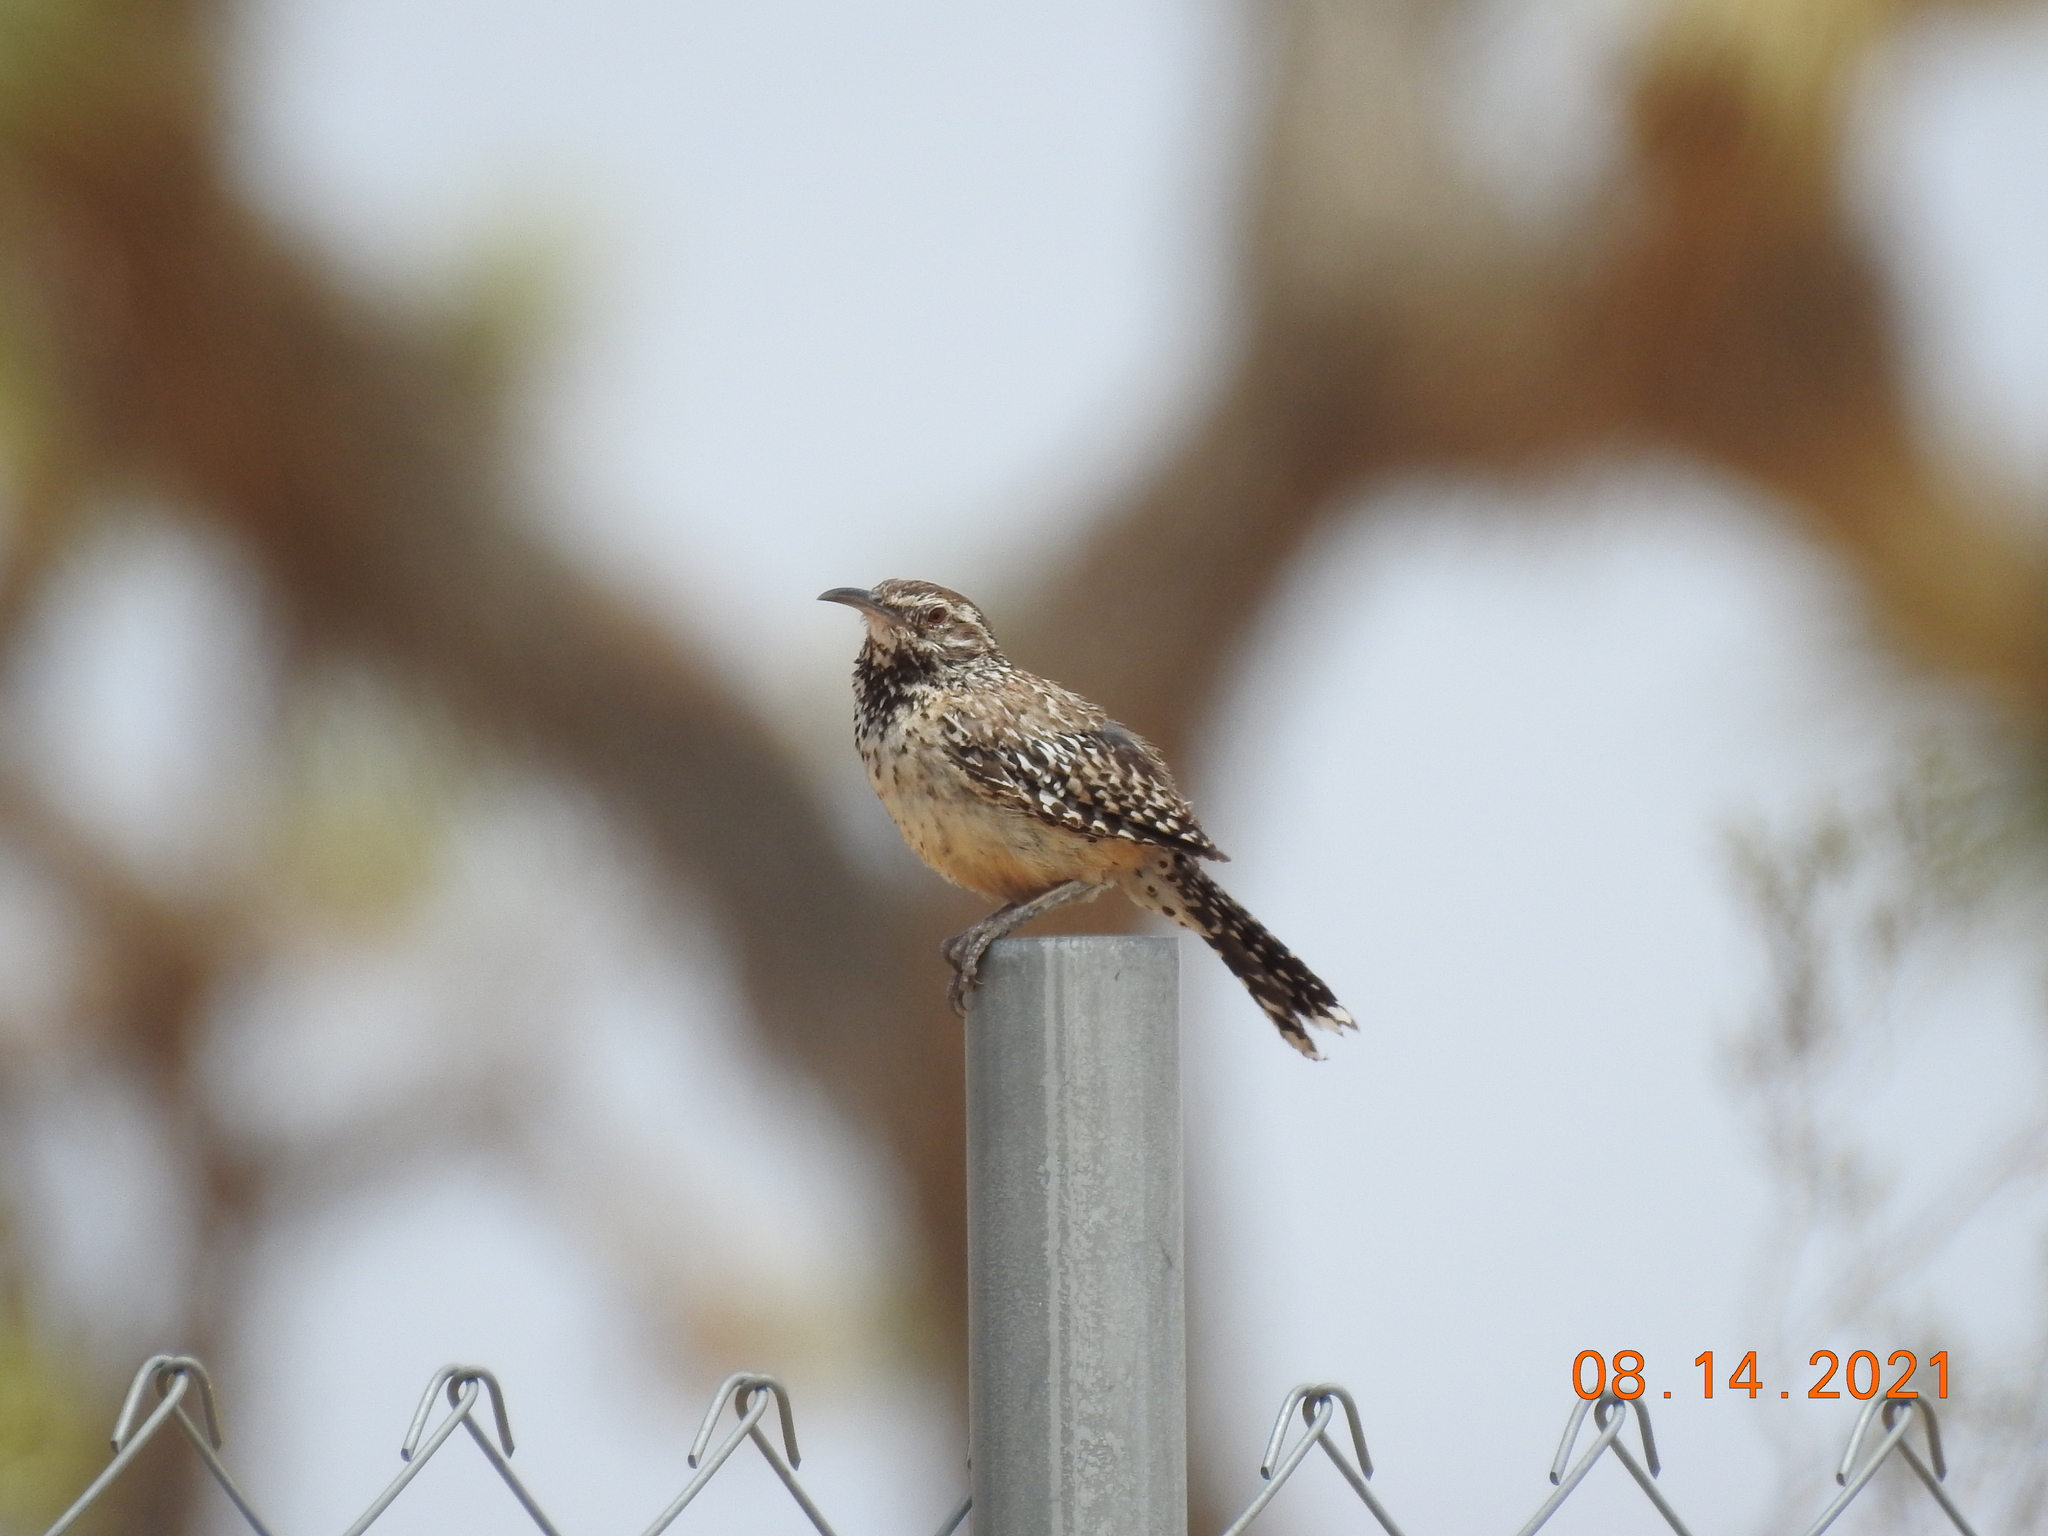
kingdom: Animalia
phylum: Chordata
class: Aves
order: Passeriformes
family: Troglodytidae
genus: Campylorhynchus
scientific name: Campylorhynchus brunneicapillus
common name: Cactus wren
